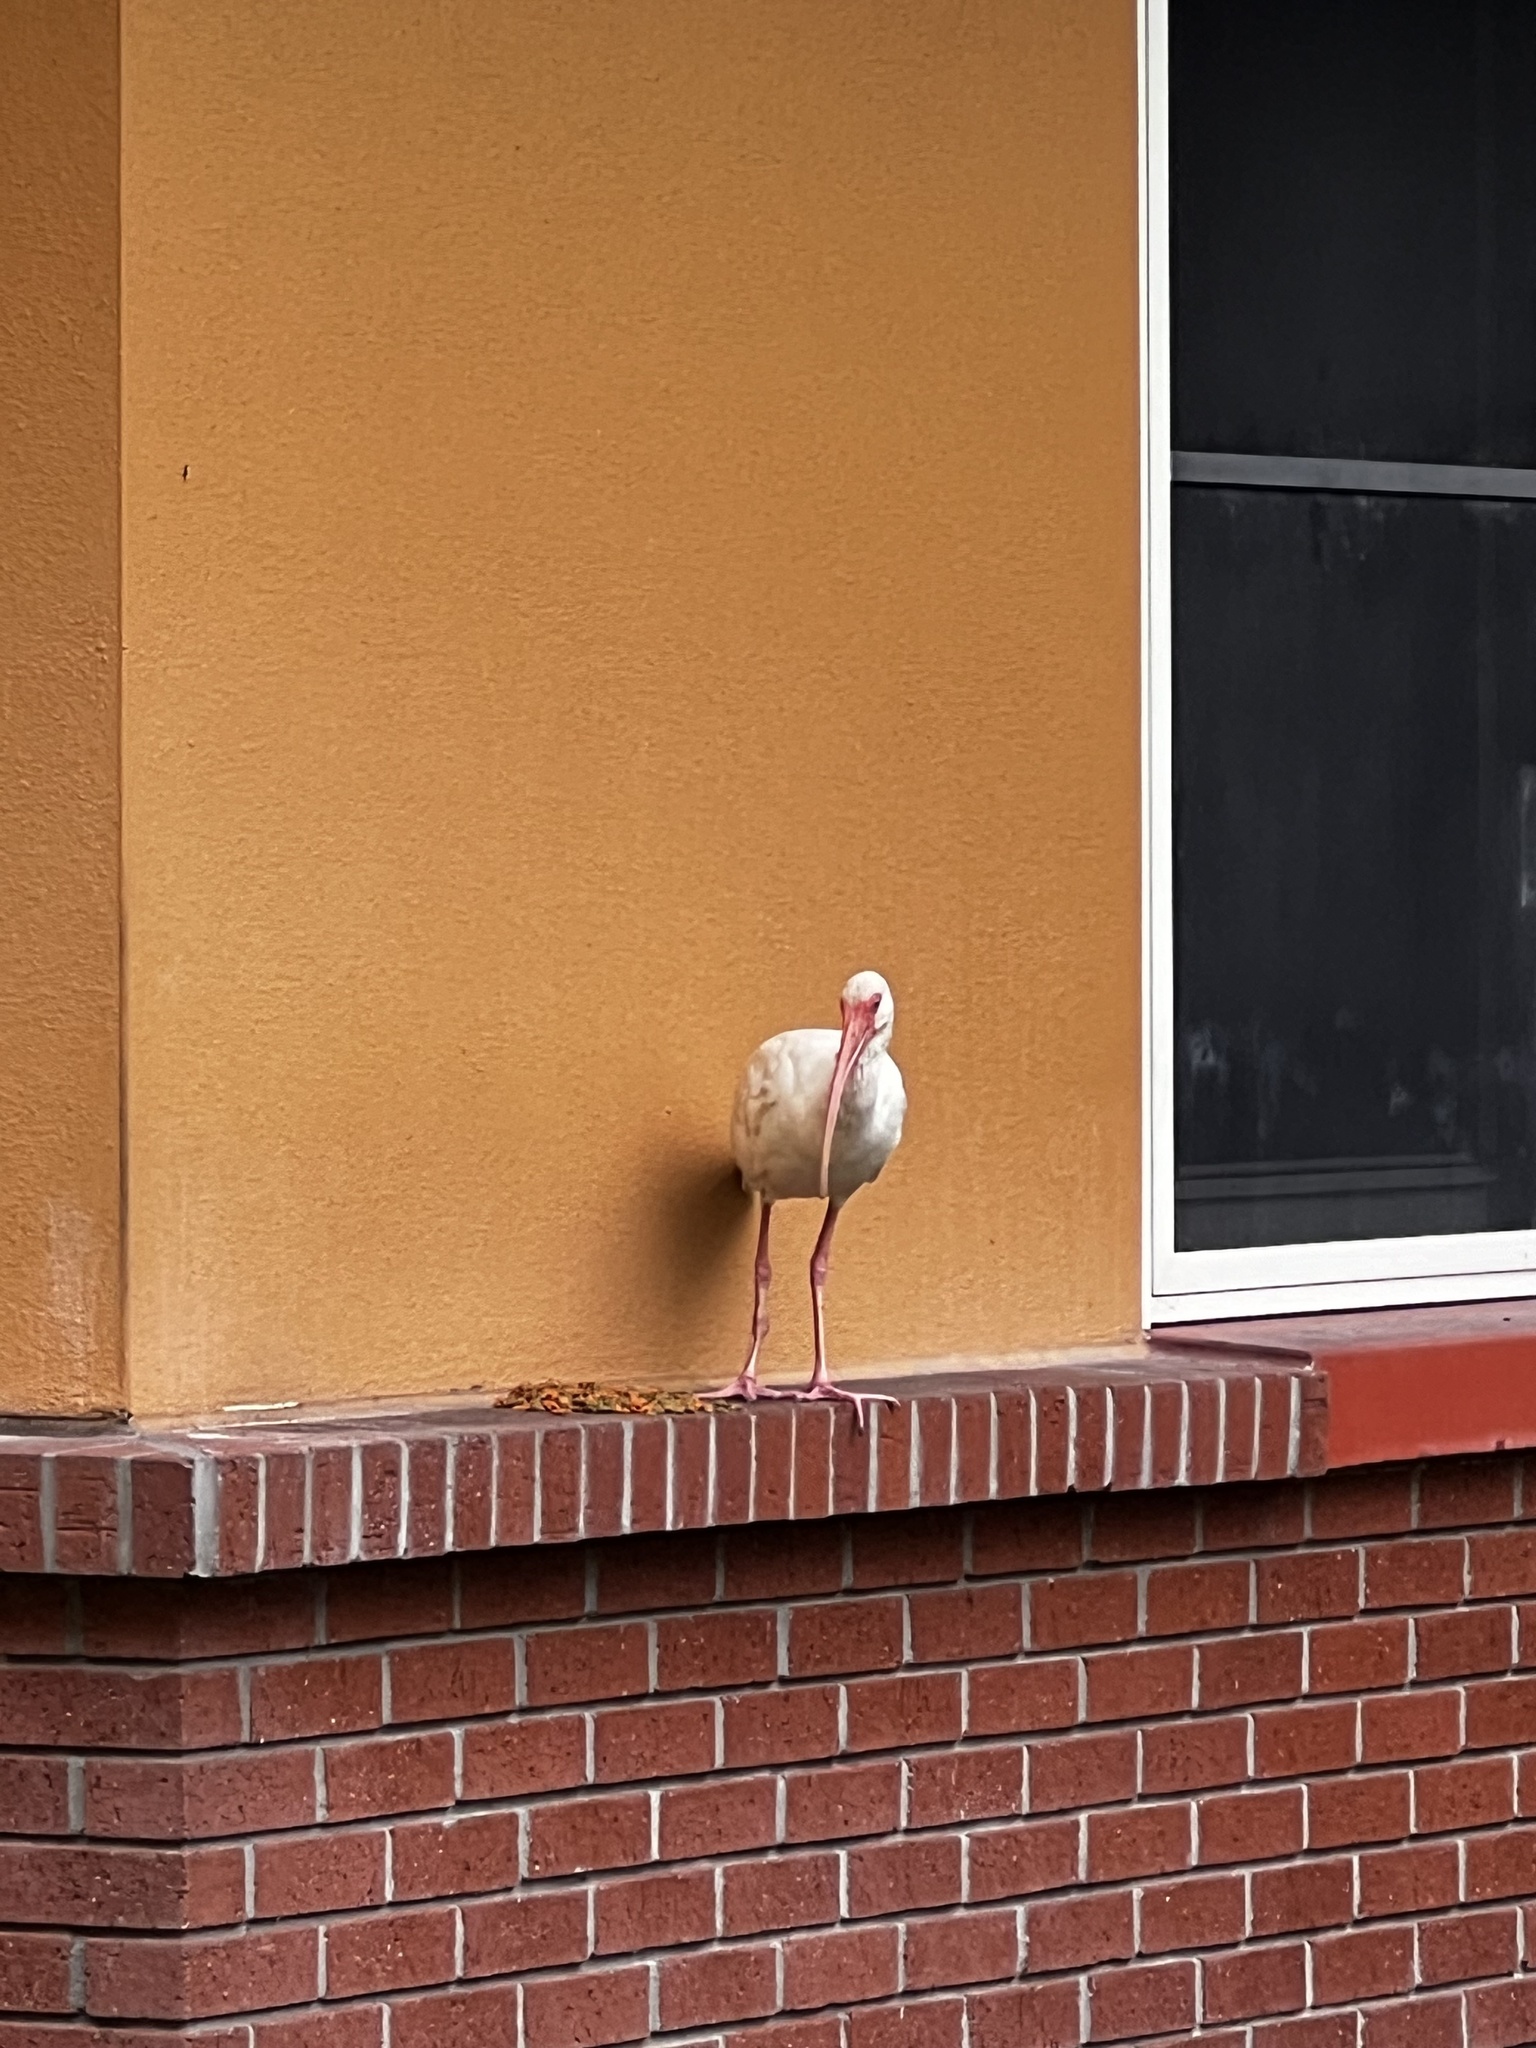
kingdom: Animalia
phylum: Chordata
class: Aves
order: Pelecaniformes
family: Threskiornithidae
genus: Eudocimus
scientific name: Eudocimus albus
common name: White ibis
